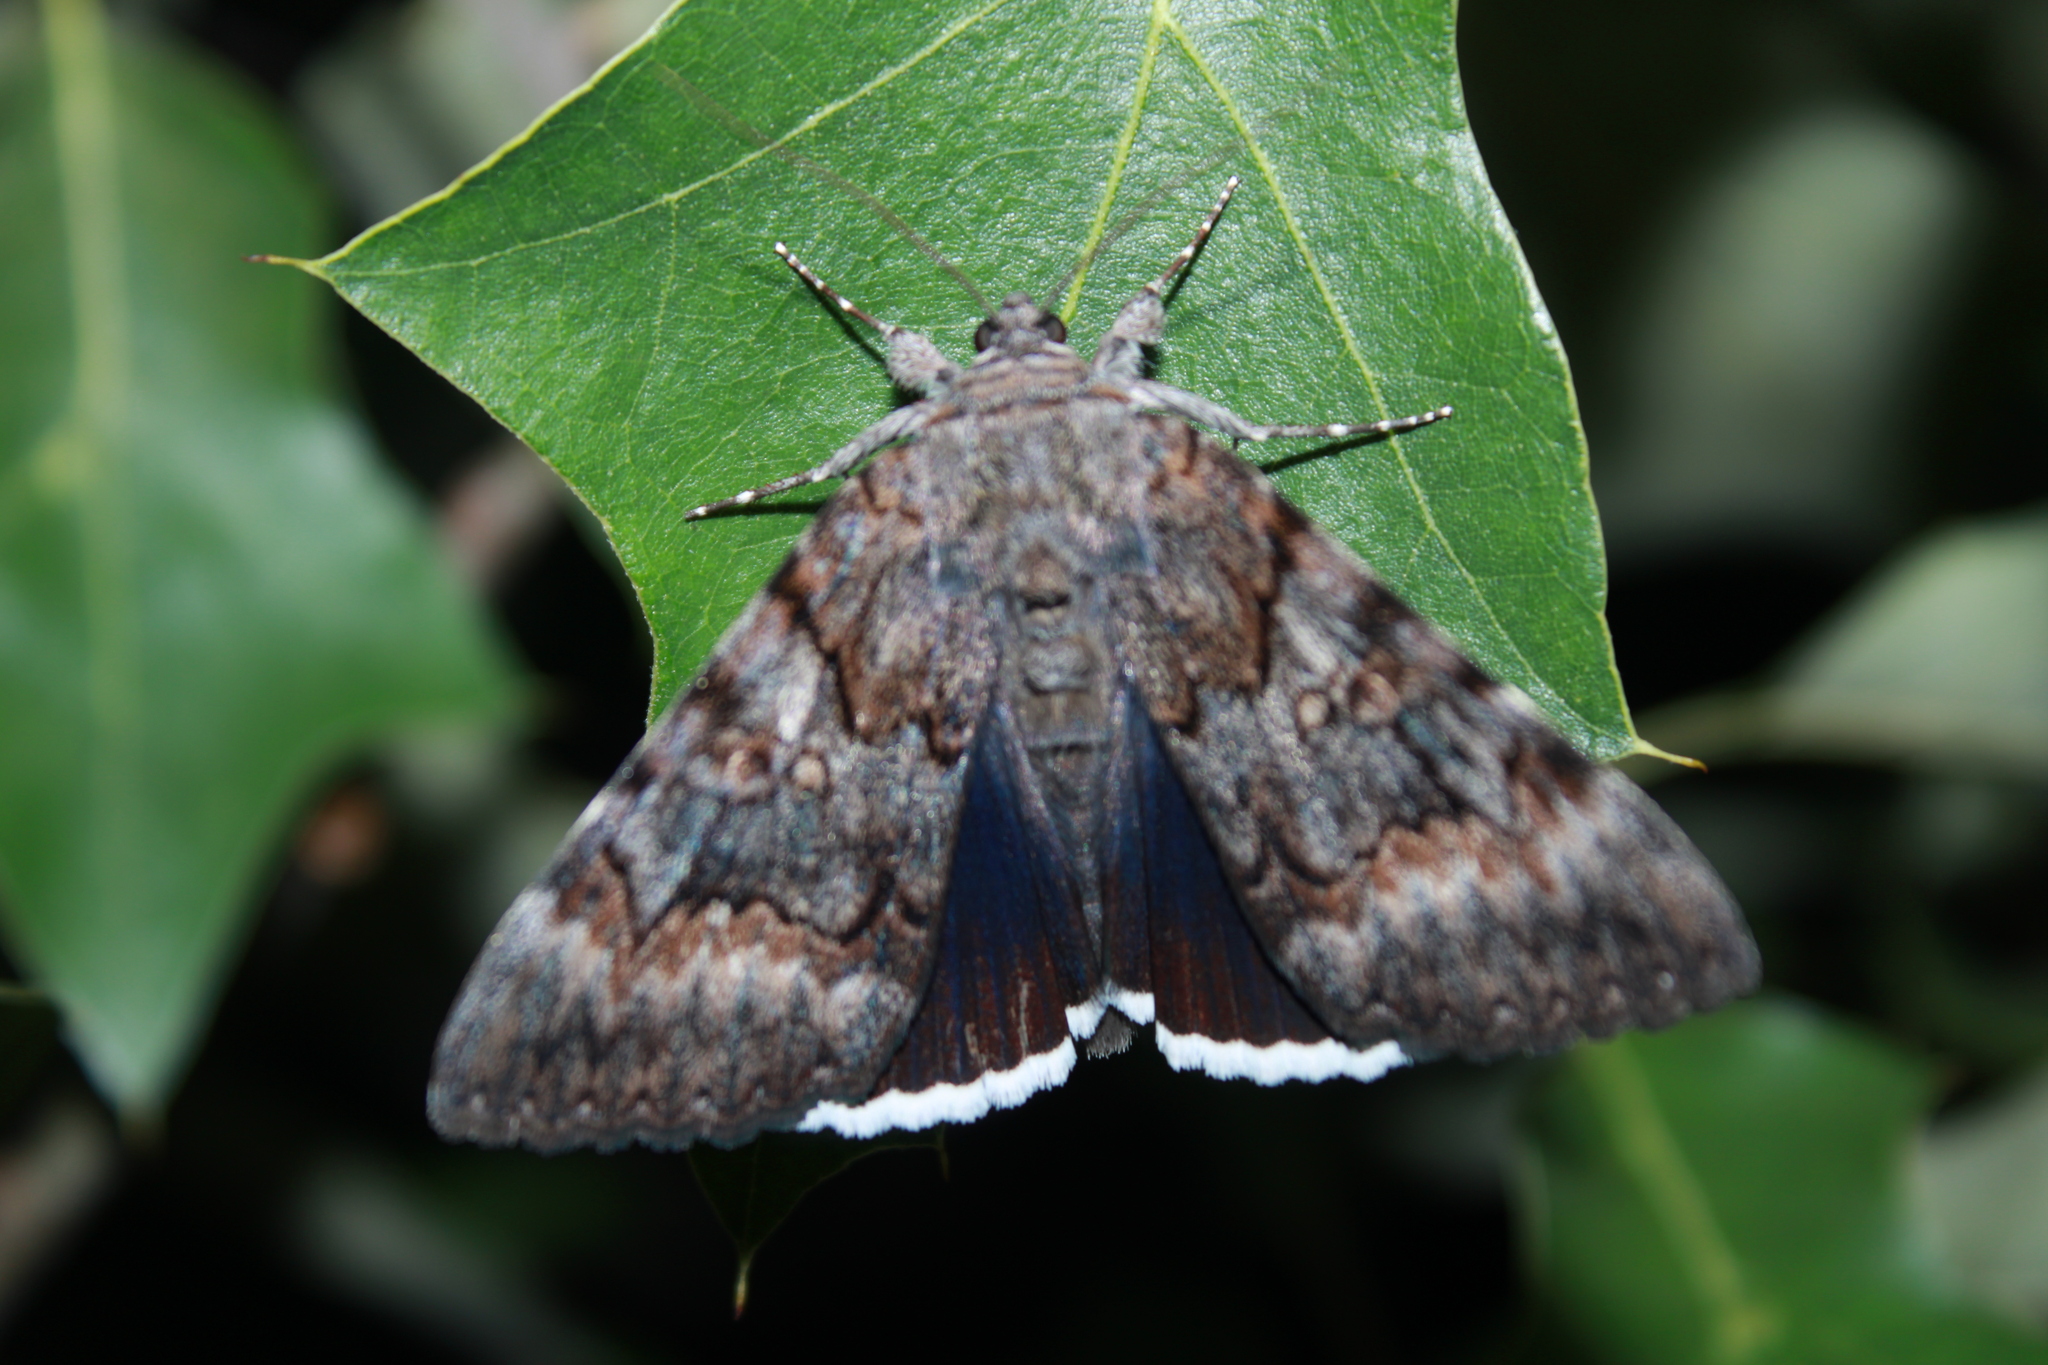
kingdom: Animalia
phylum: Arthropoda
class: Insecta
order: Lepidoptera
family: Erebidae
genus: Catocala
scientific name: Catocala epione
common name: Epione underwing
